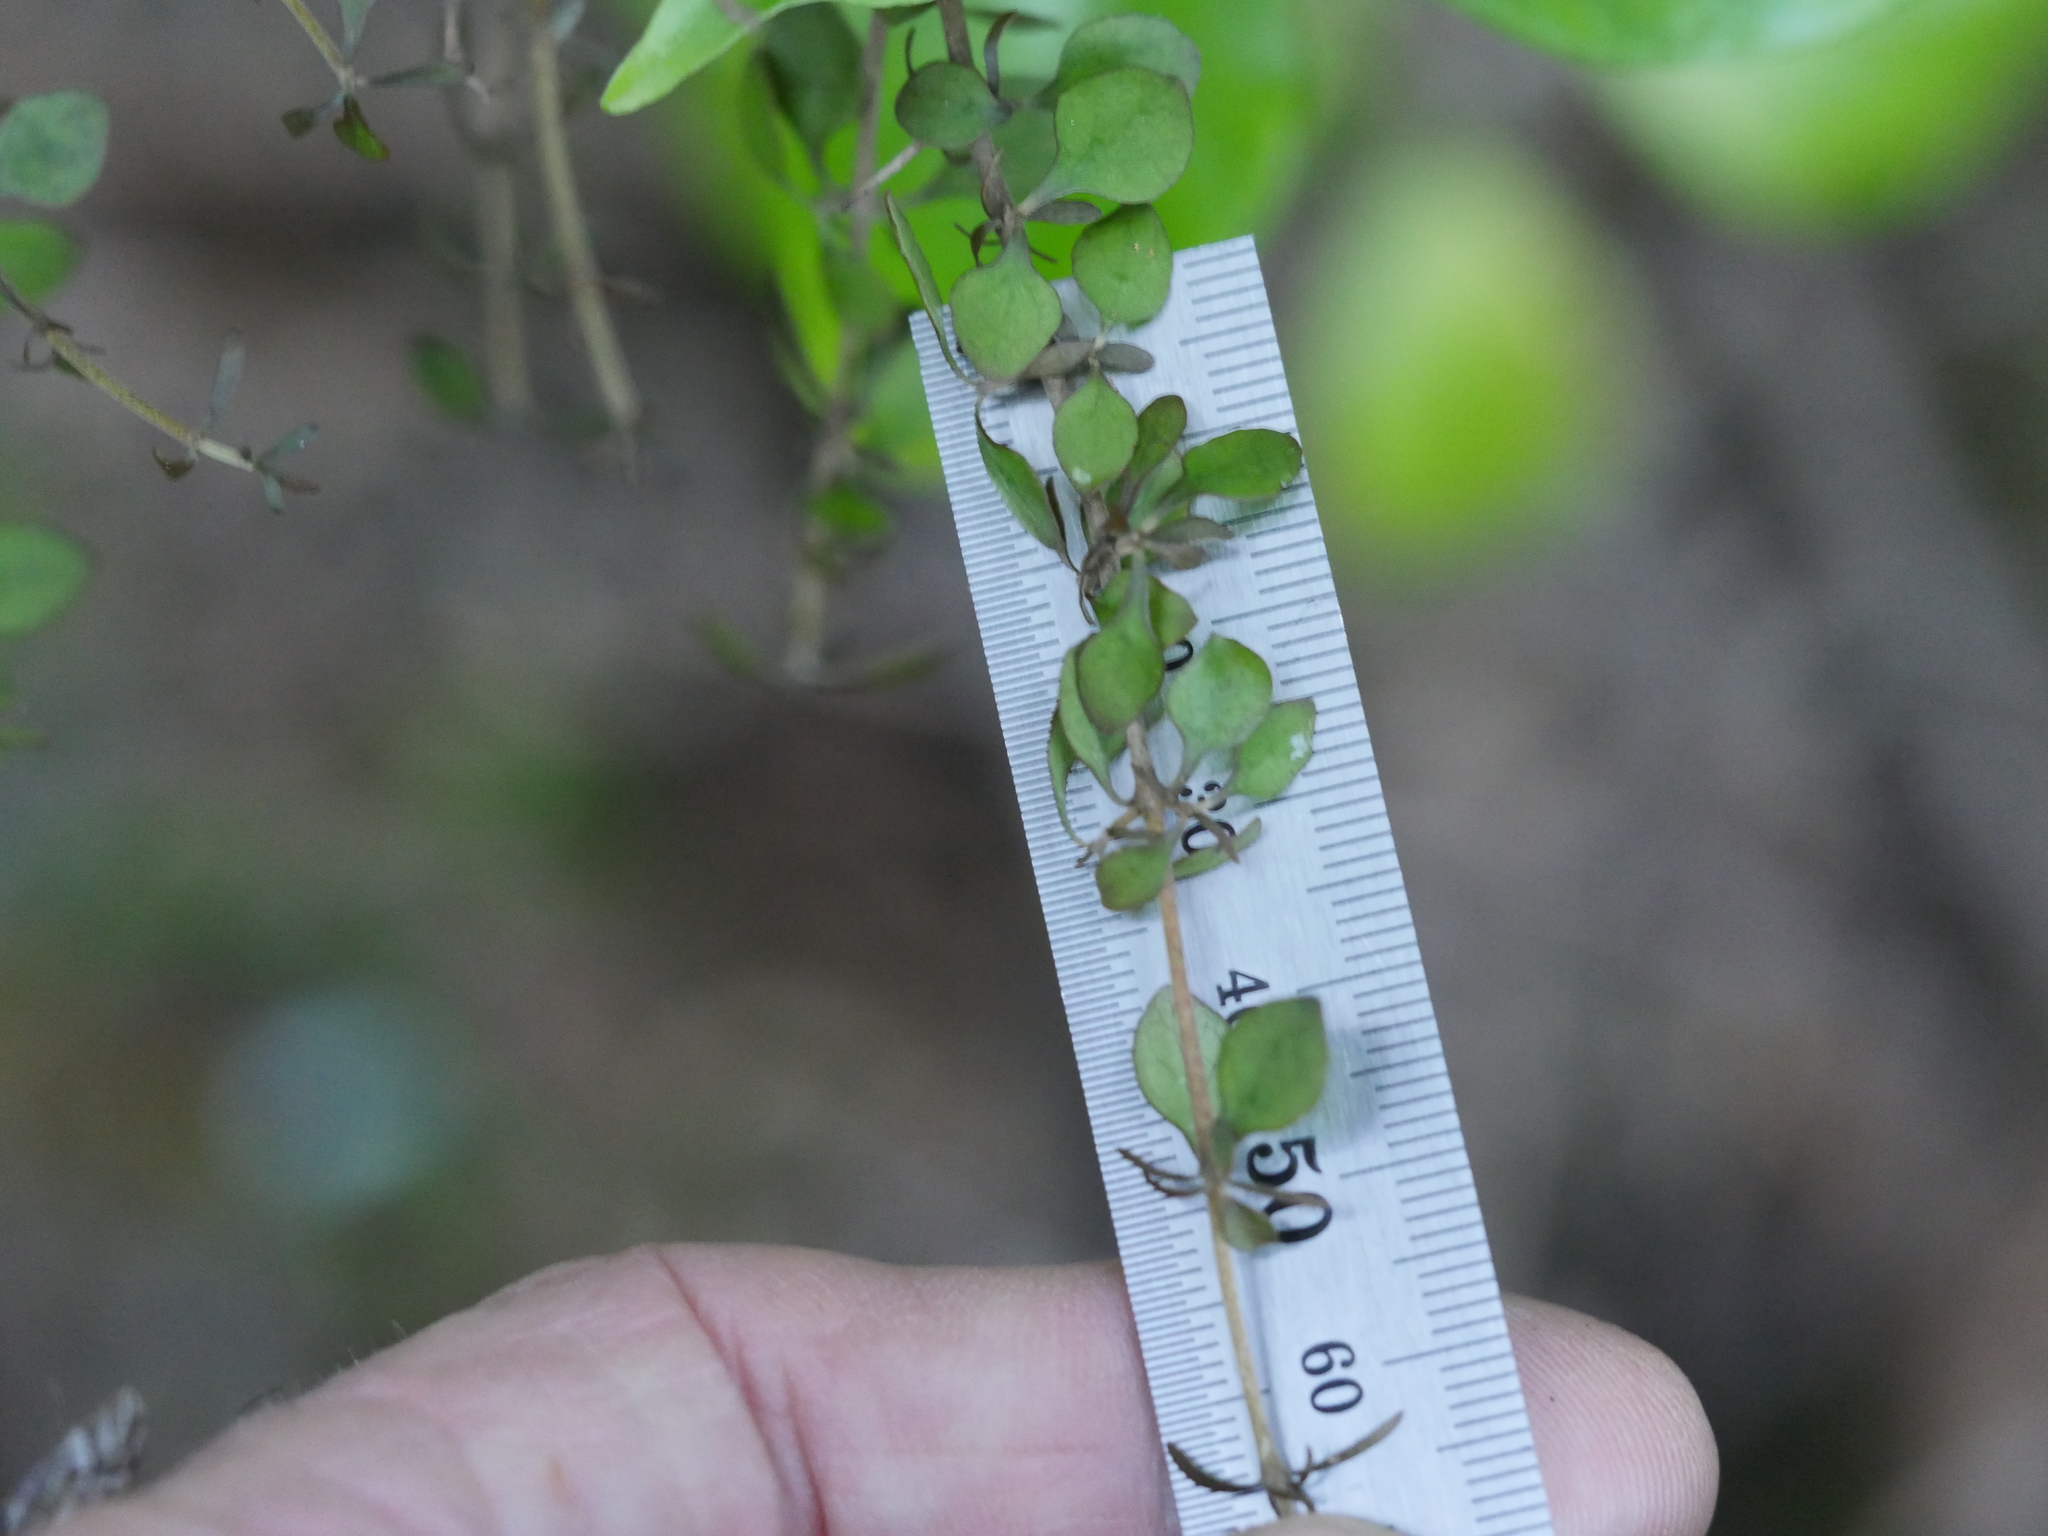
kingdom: Plantae
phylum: Tracheophyta
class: Magnoliopsida
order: Gentianales
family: Rubiaceae
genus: Coprosma
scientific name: Coprosma rhamnoides
